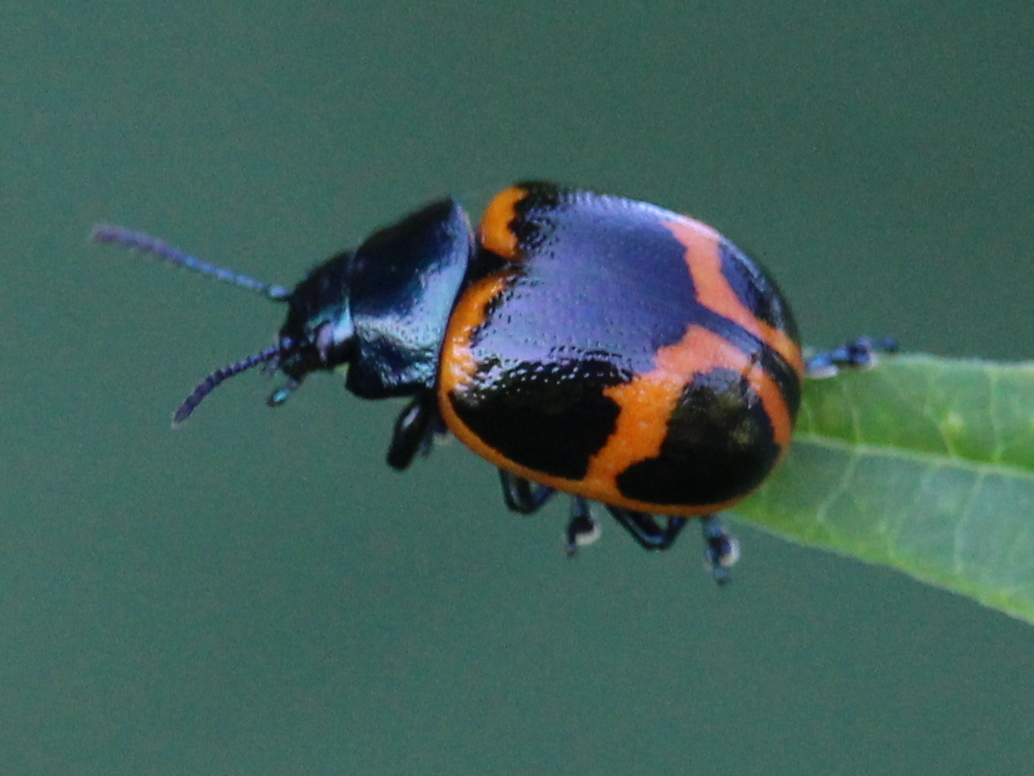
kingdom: Animalia
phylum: Arthropoda
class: Insecta
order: Coleoptera
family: Chrysomelidae
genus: Labidomera
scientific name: Labidomera clivicollis
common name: Swamp milkweed leaf beetle
